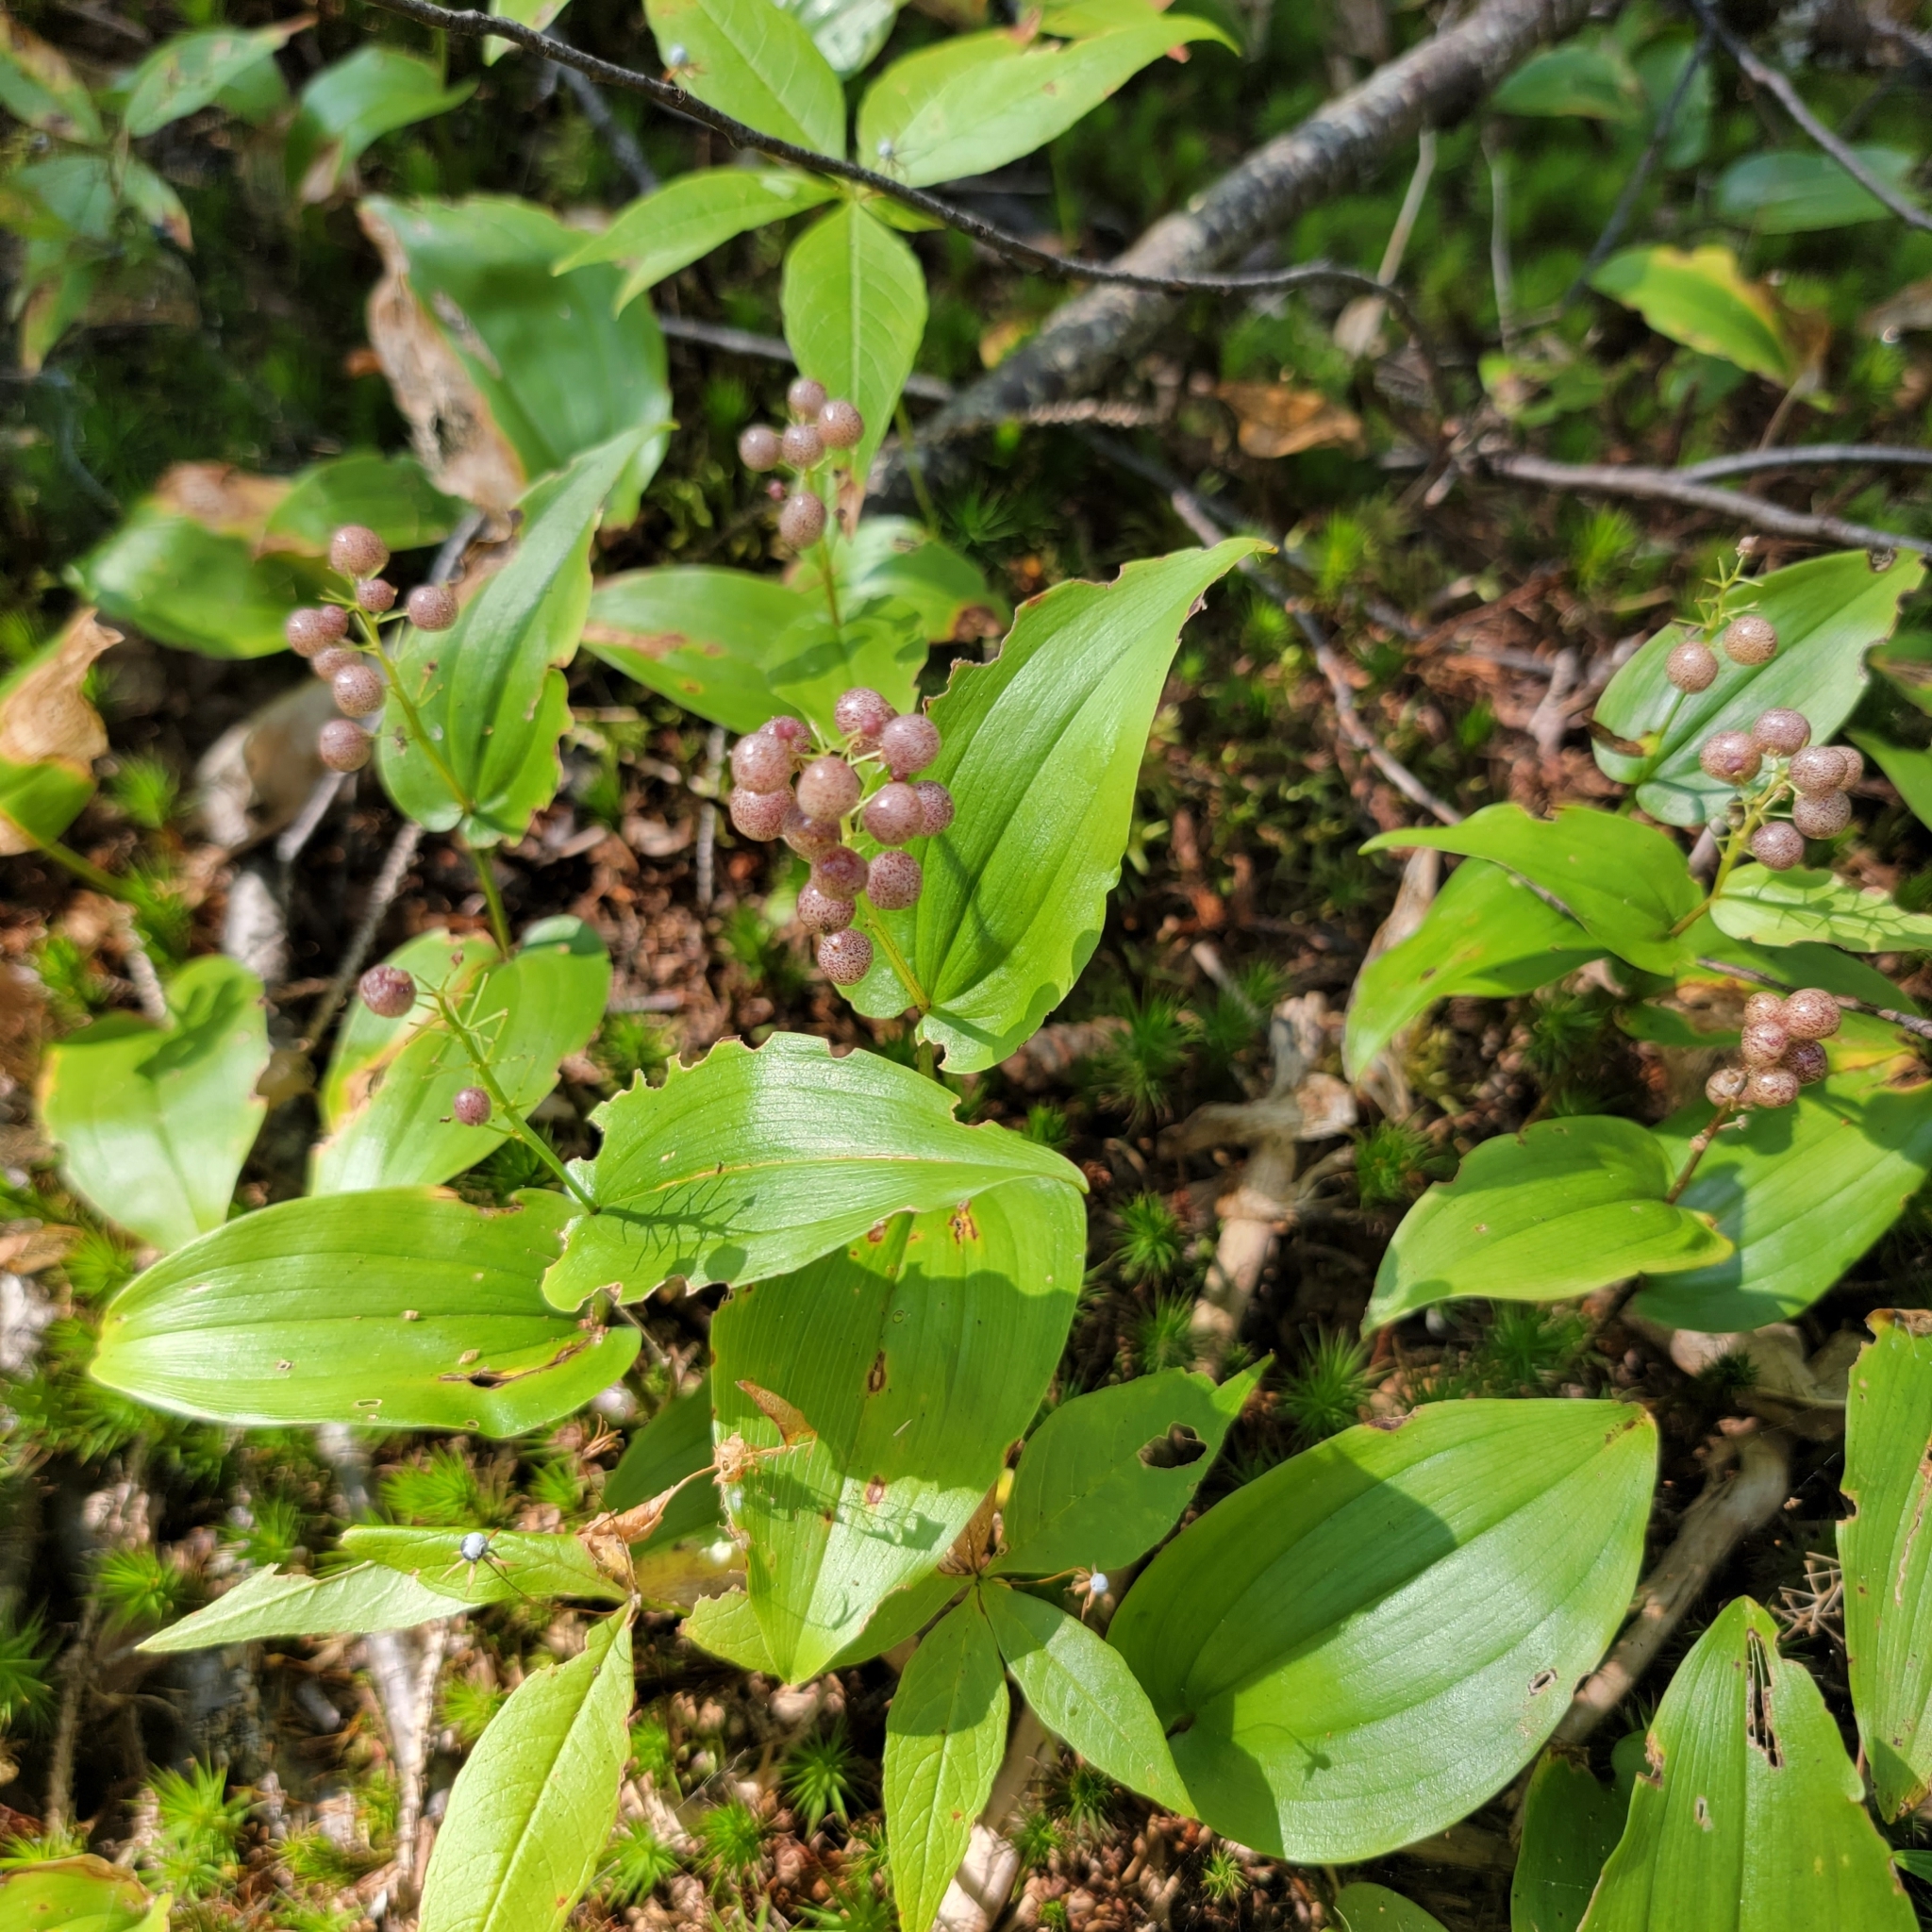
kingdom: Plantae
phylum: Tracheophyta
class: Liliopsida
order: Asparagales
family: Asparagaceae
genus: Maianthemum
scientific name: Maianthemum canadense
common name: False lily-of-the-valley
